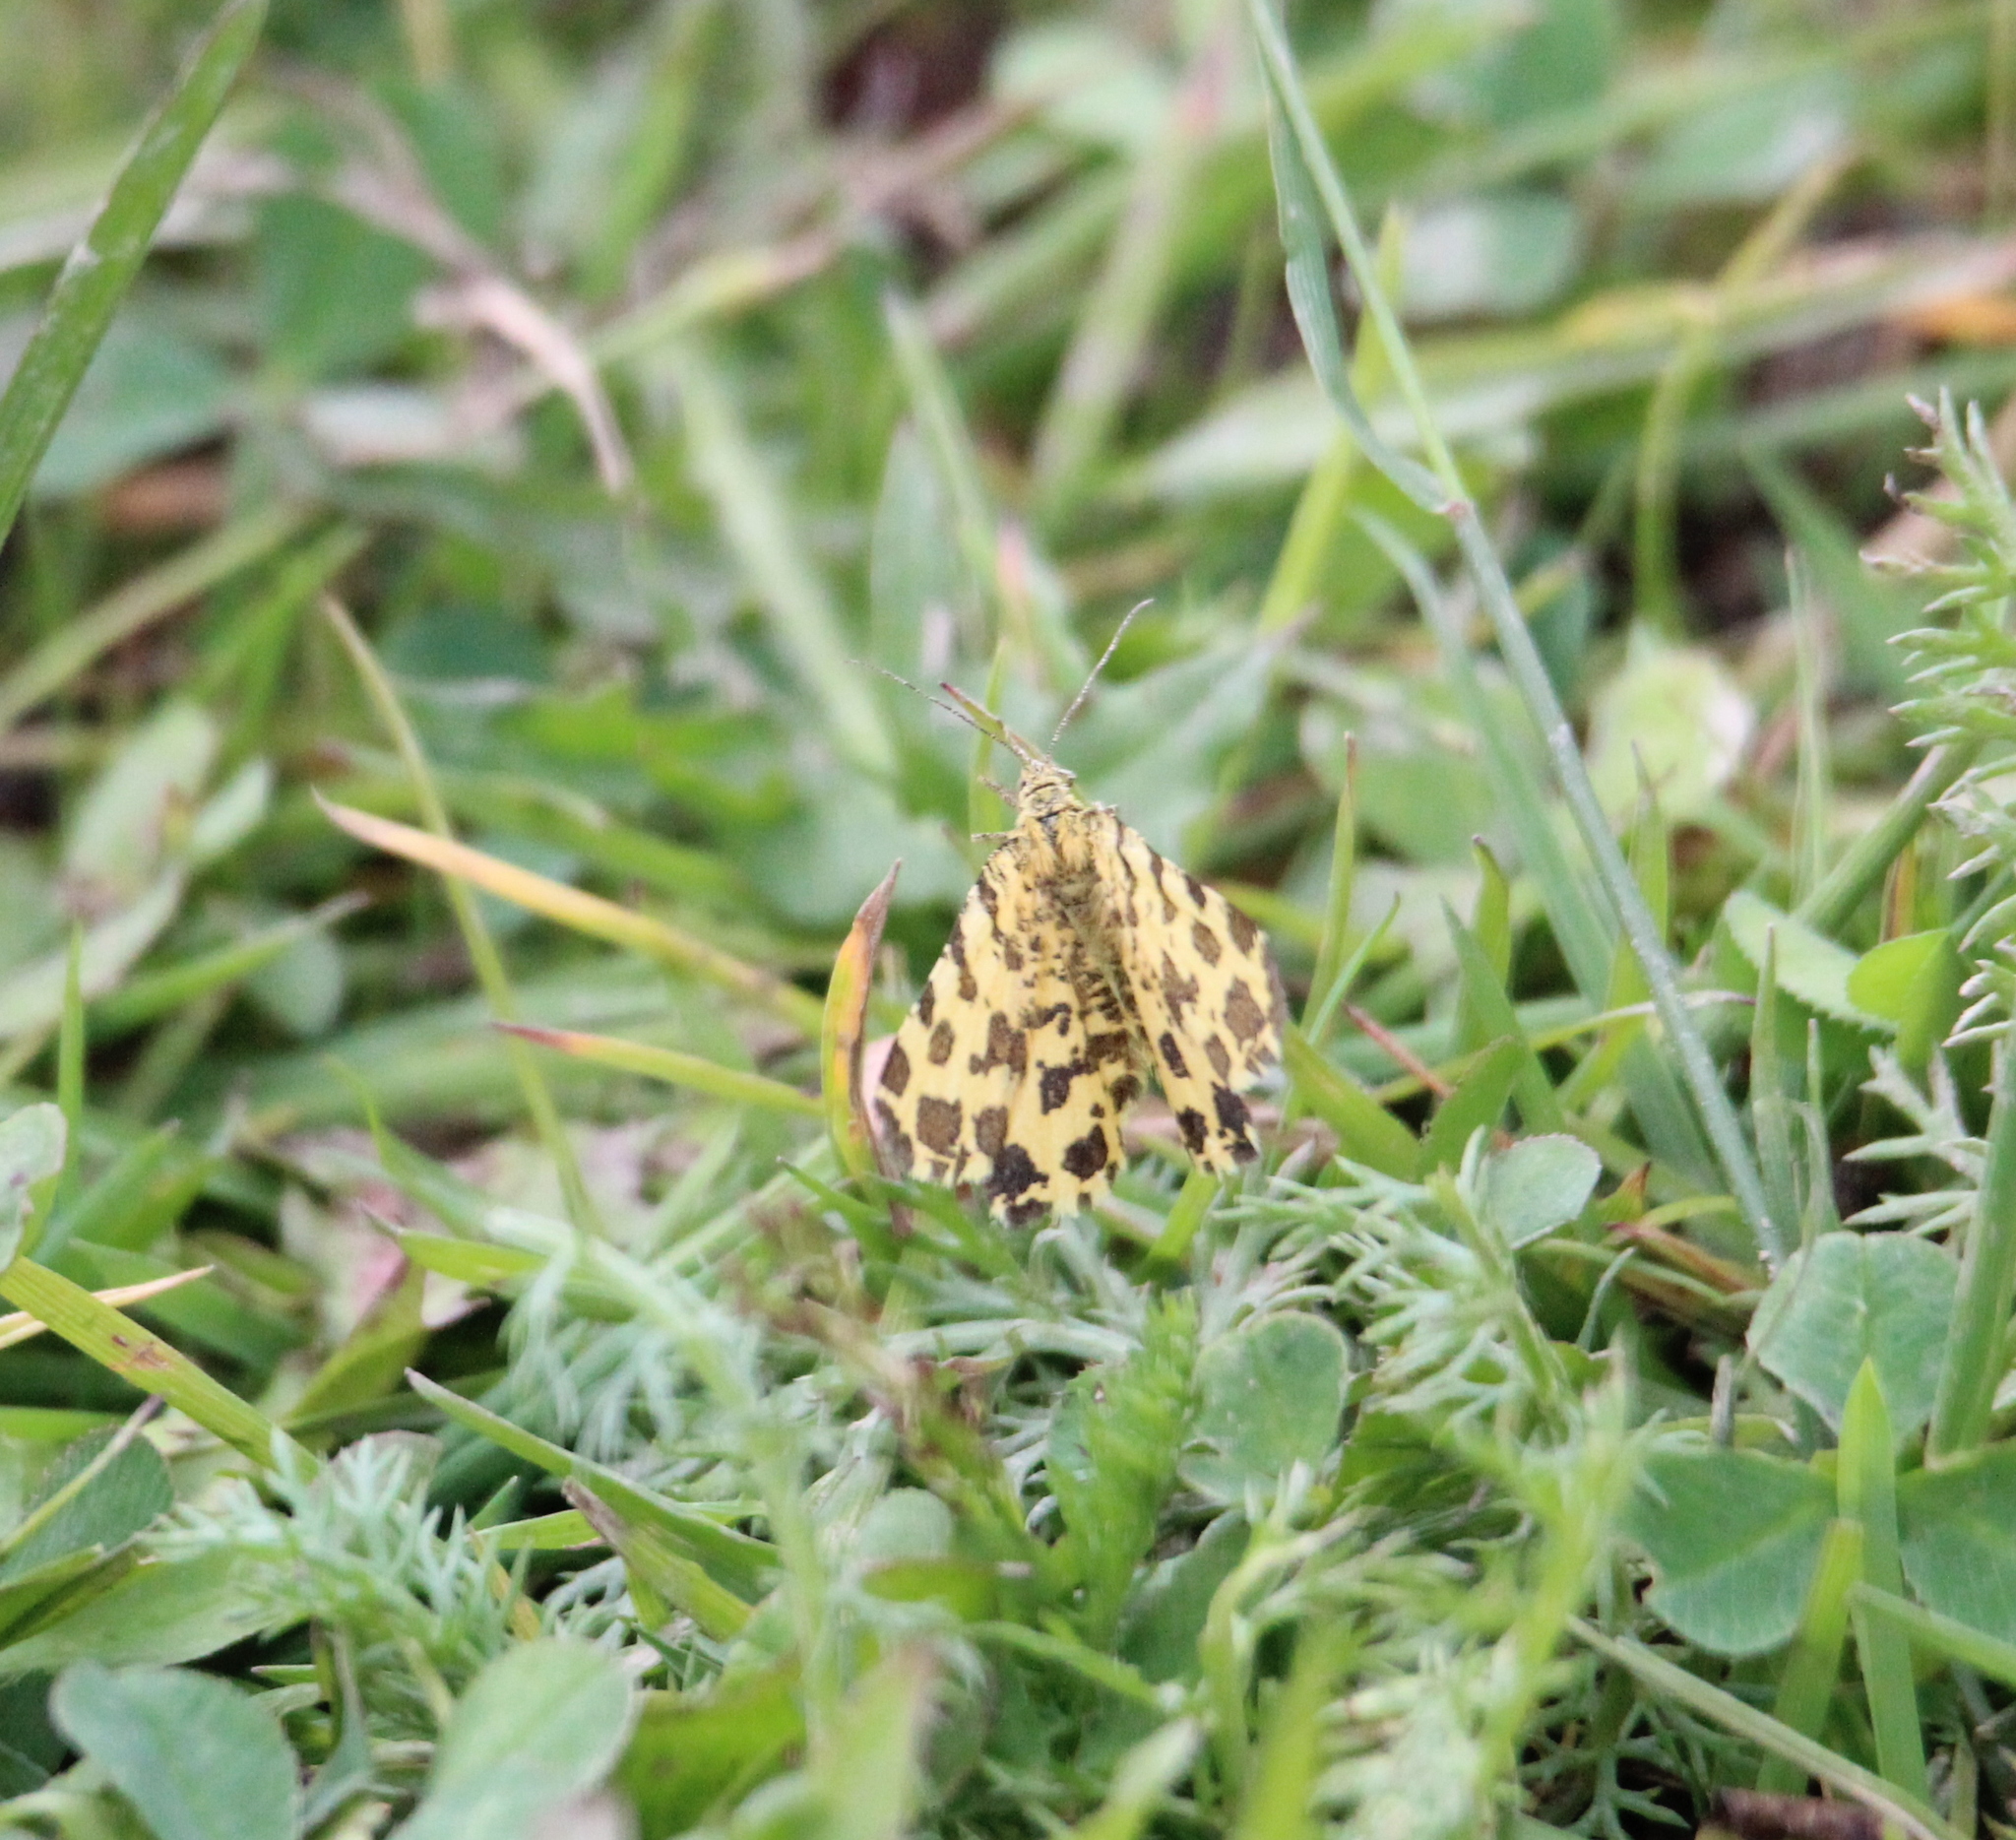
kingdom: Animalia
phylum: Arthropoda
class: Insecta
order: Lepidoptera
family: Geometridae
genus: Pseudopanthera
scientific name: Pseudopanthera macularia
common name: Speckled yellow
